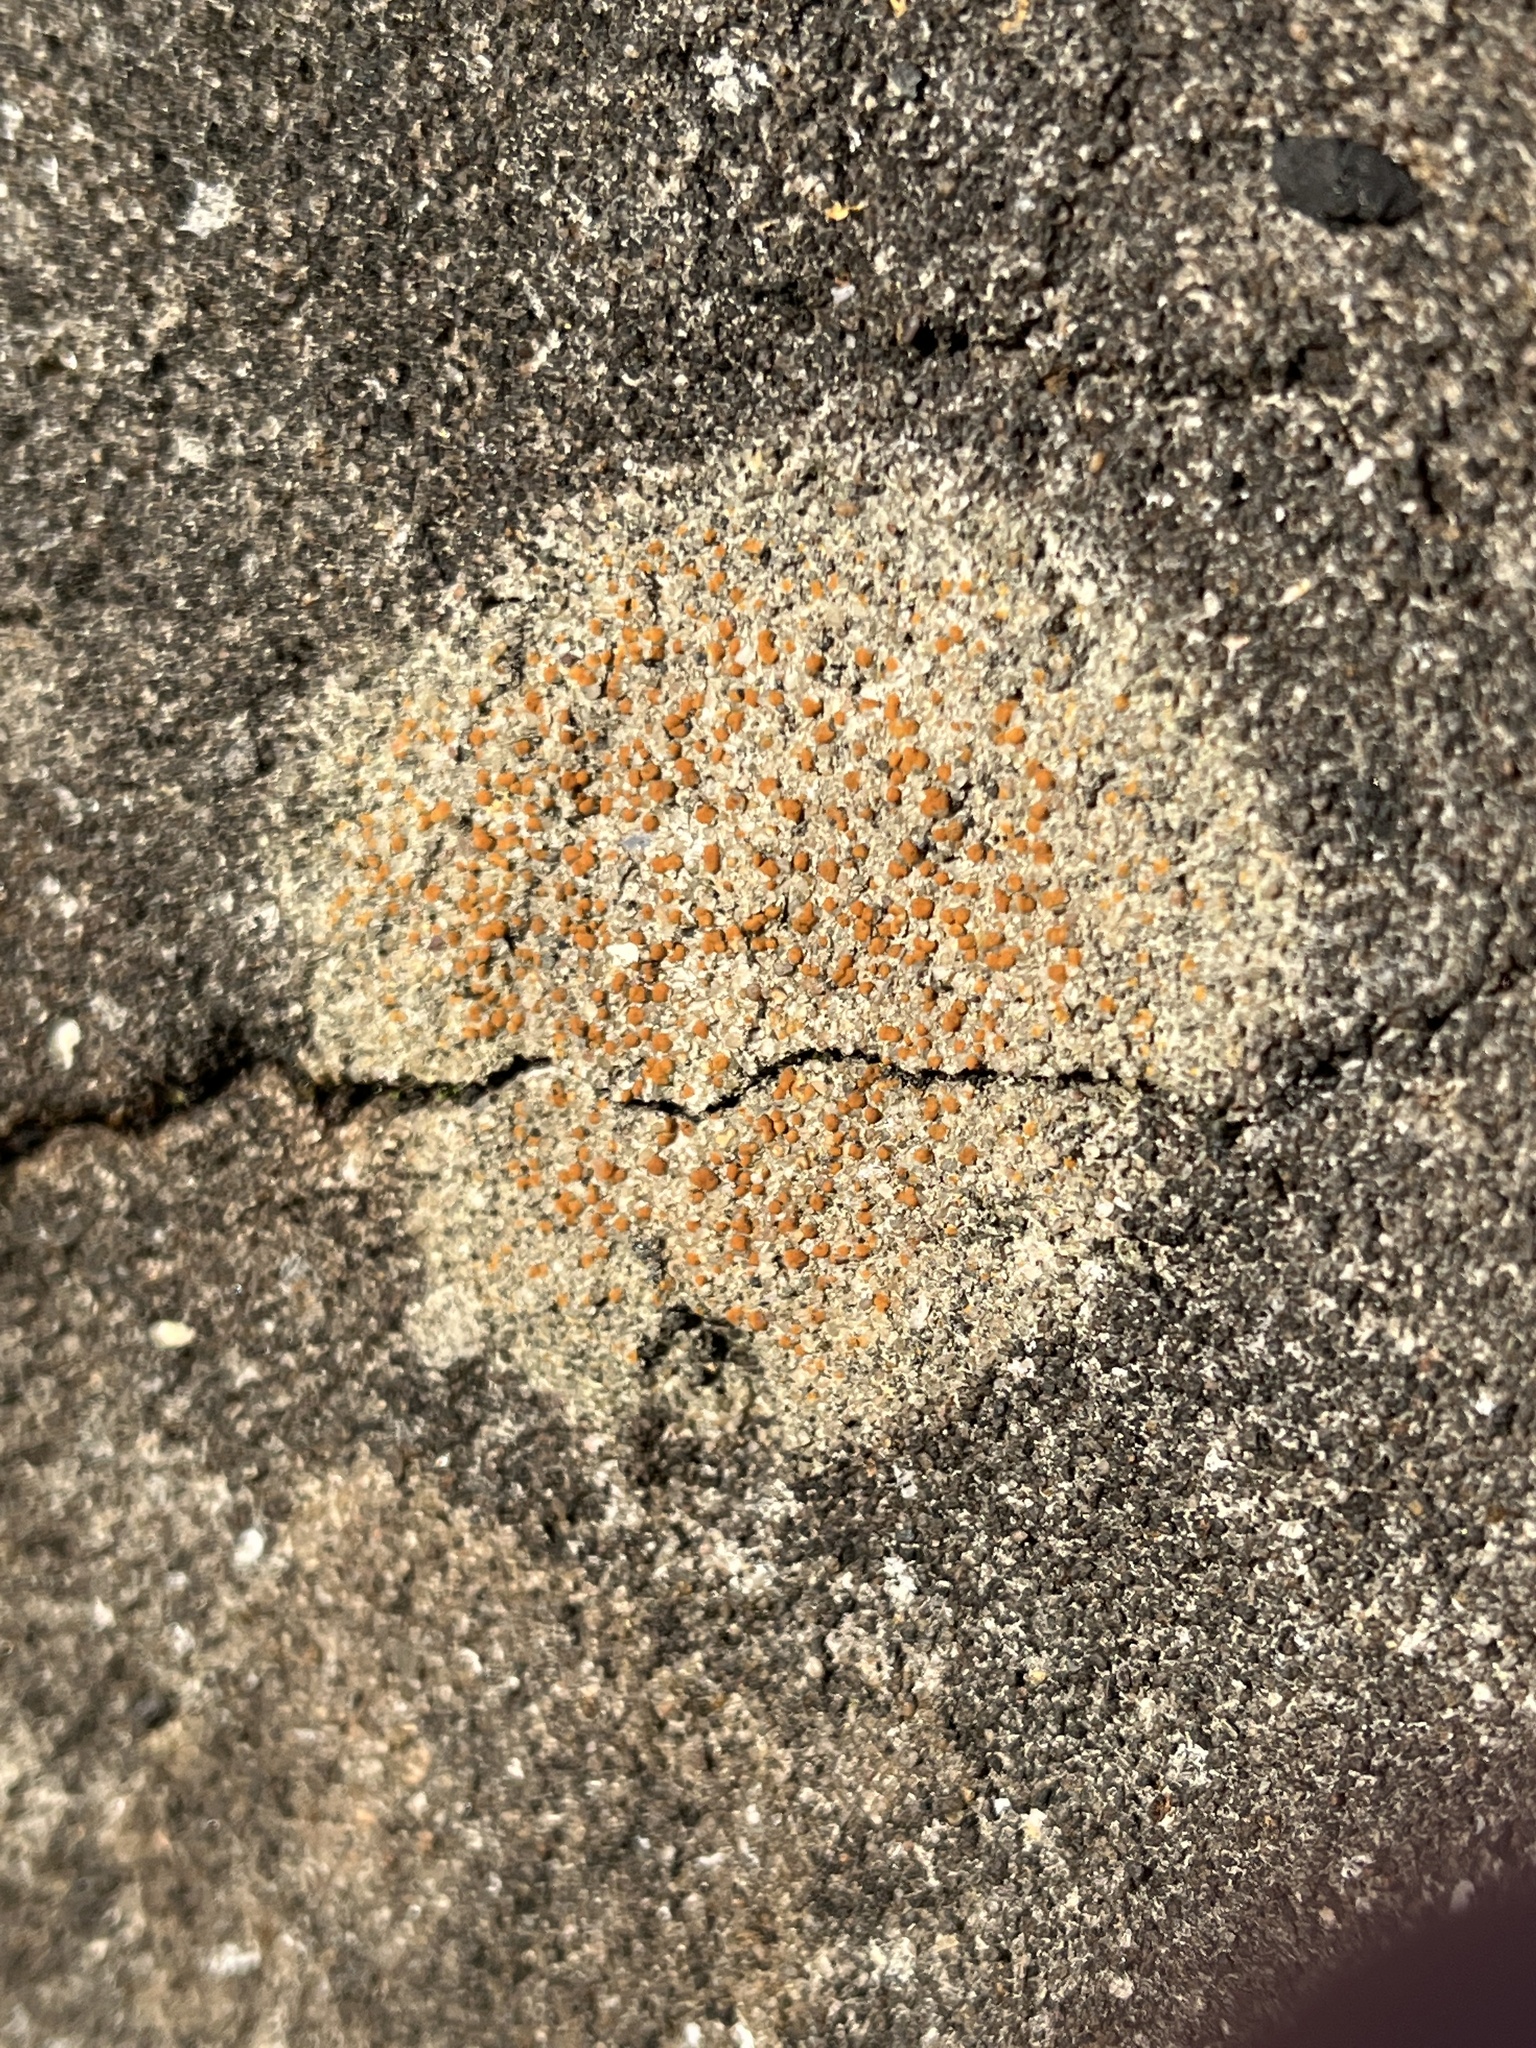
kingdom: Fungi
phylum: Ascomycota
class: Lecanoromycetes
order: Lecanorales
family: Psoraceae
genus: Protoblastenia
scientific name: Protoblastenia rupestris
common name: Chewing gum lichen
